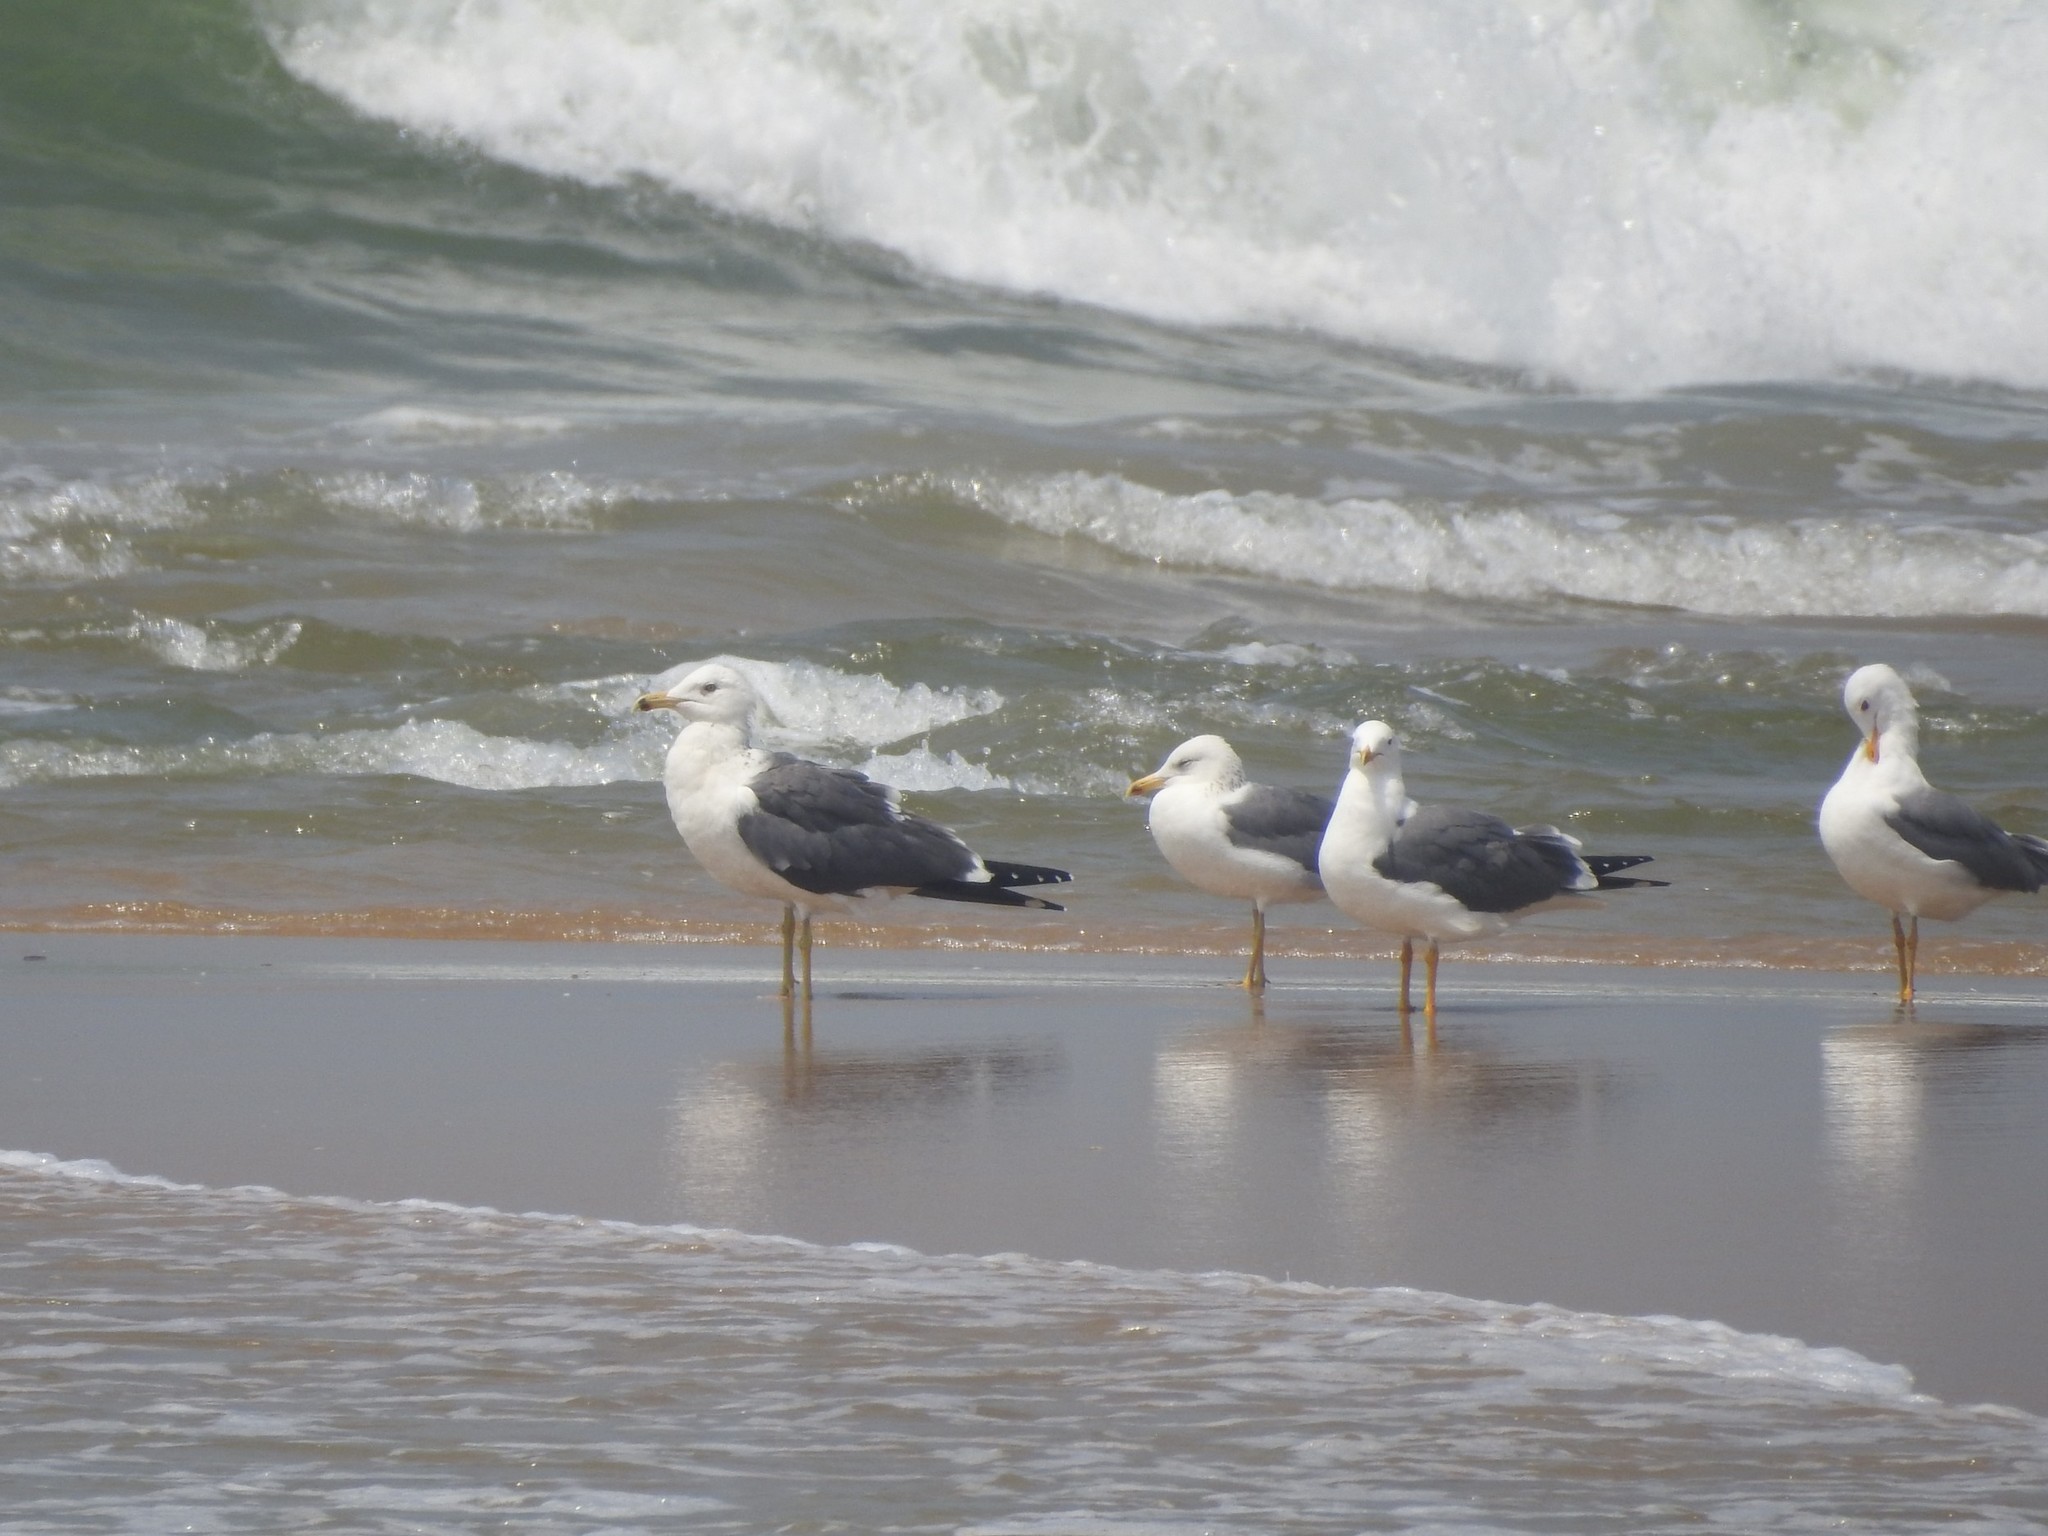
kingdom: Animalia
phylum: Chordata
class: Aves
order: Charadriiformes
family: Laridae
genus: Larus
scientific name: Larus fuscus
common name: Lesser black-backed gull
